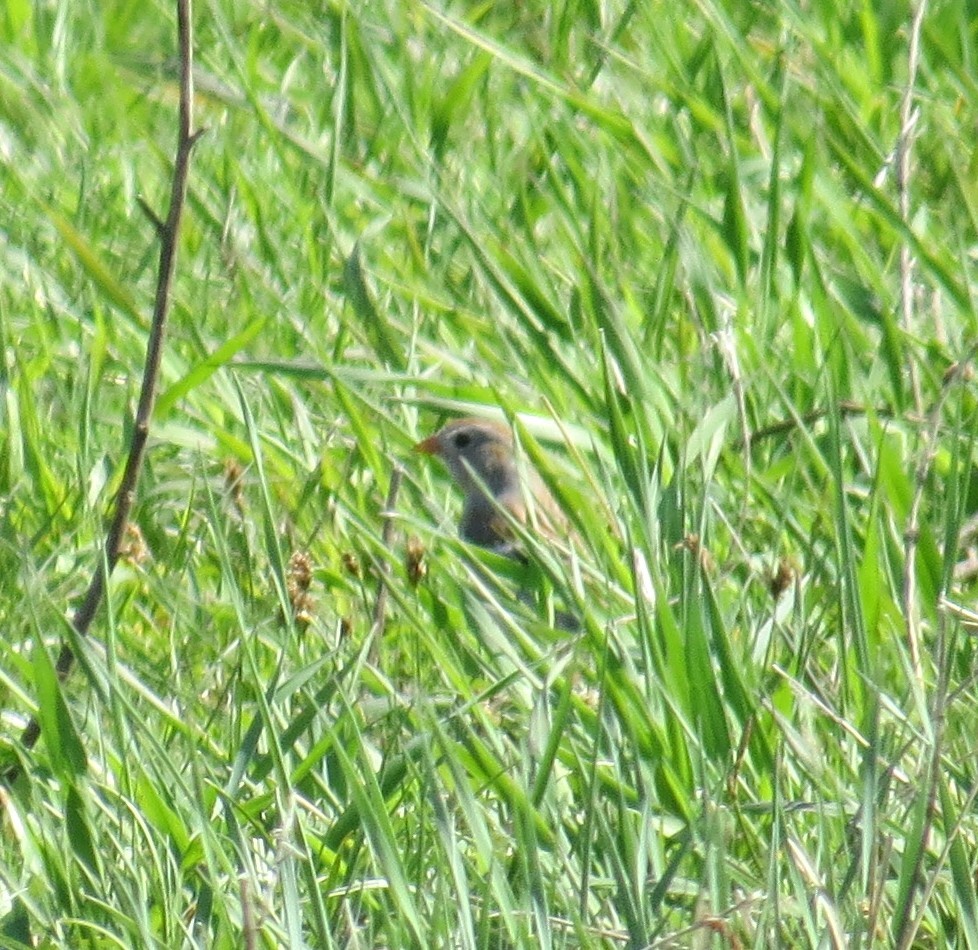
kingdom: Animalia
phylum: Chordata
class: Aves
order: Passeriformes
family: Passerellidae
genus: Spizella
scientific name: Spizella pusilla
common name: Field sparrow
